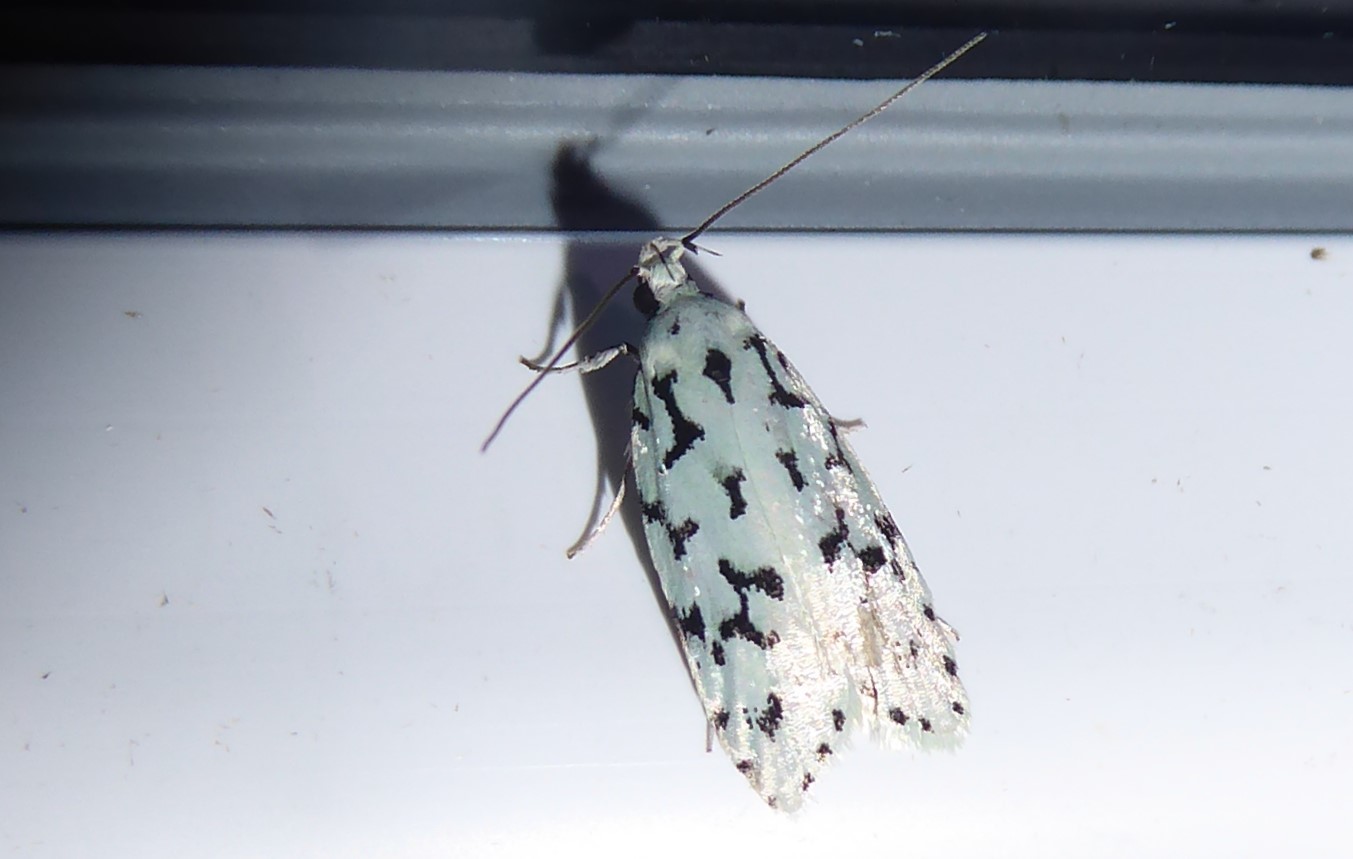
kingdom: Animalia
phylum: Arthropoda
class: Insecta
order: Lepidoptera
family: Oecophoridae
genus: Izatha
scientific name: Izatha huttoni
